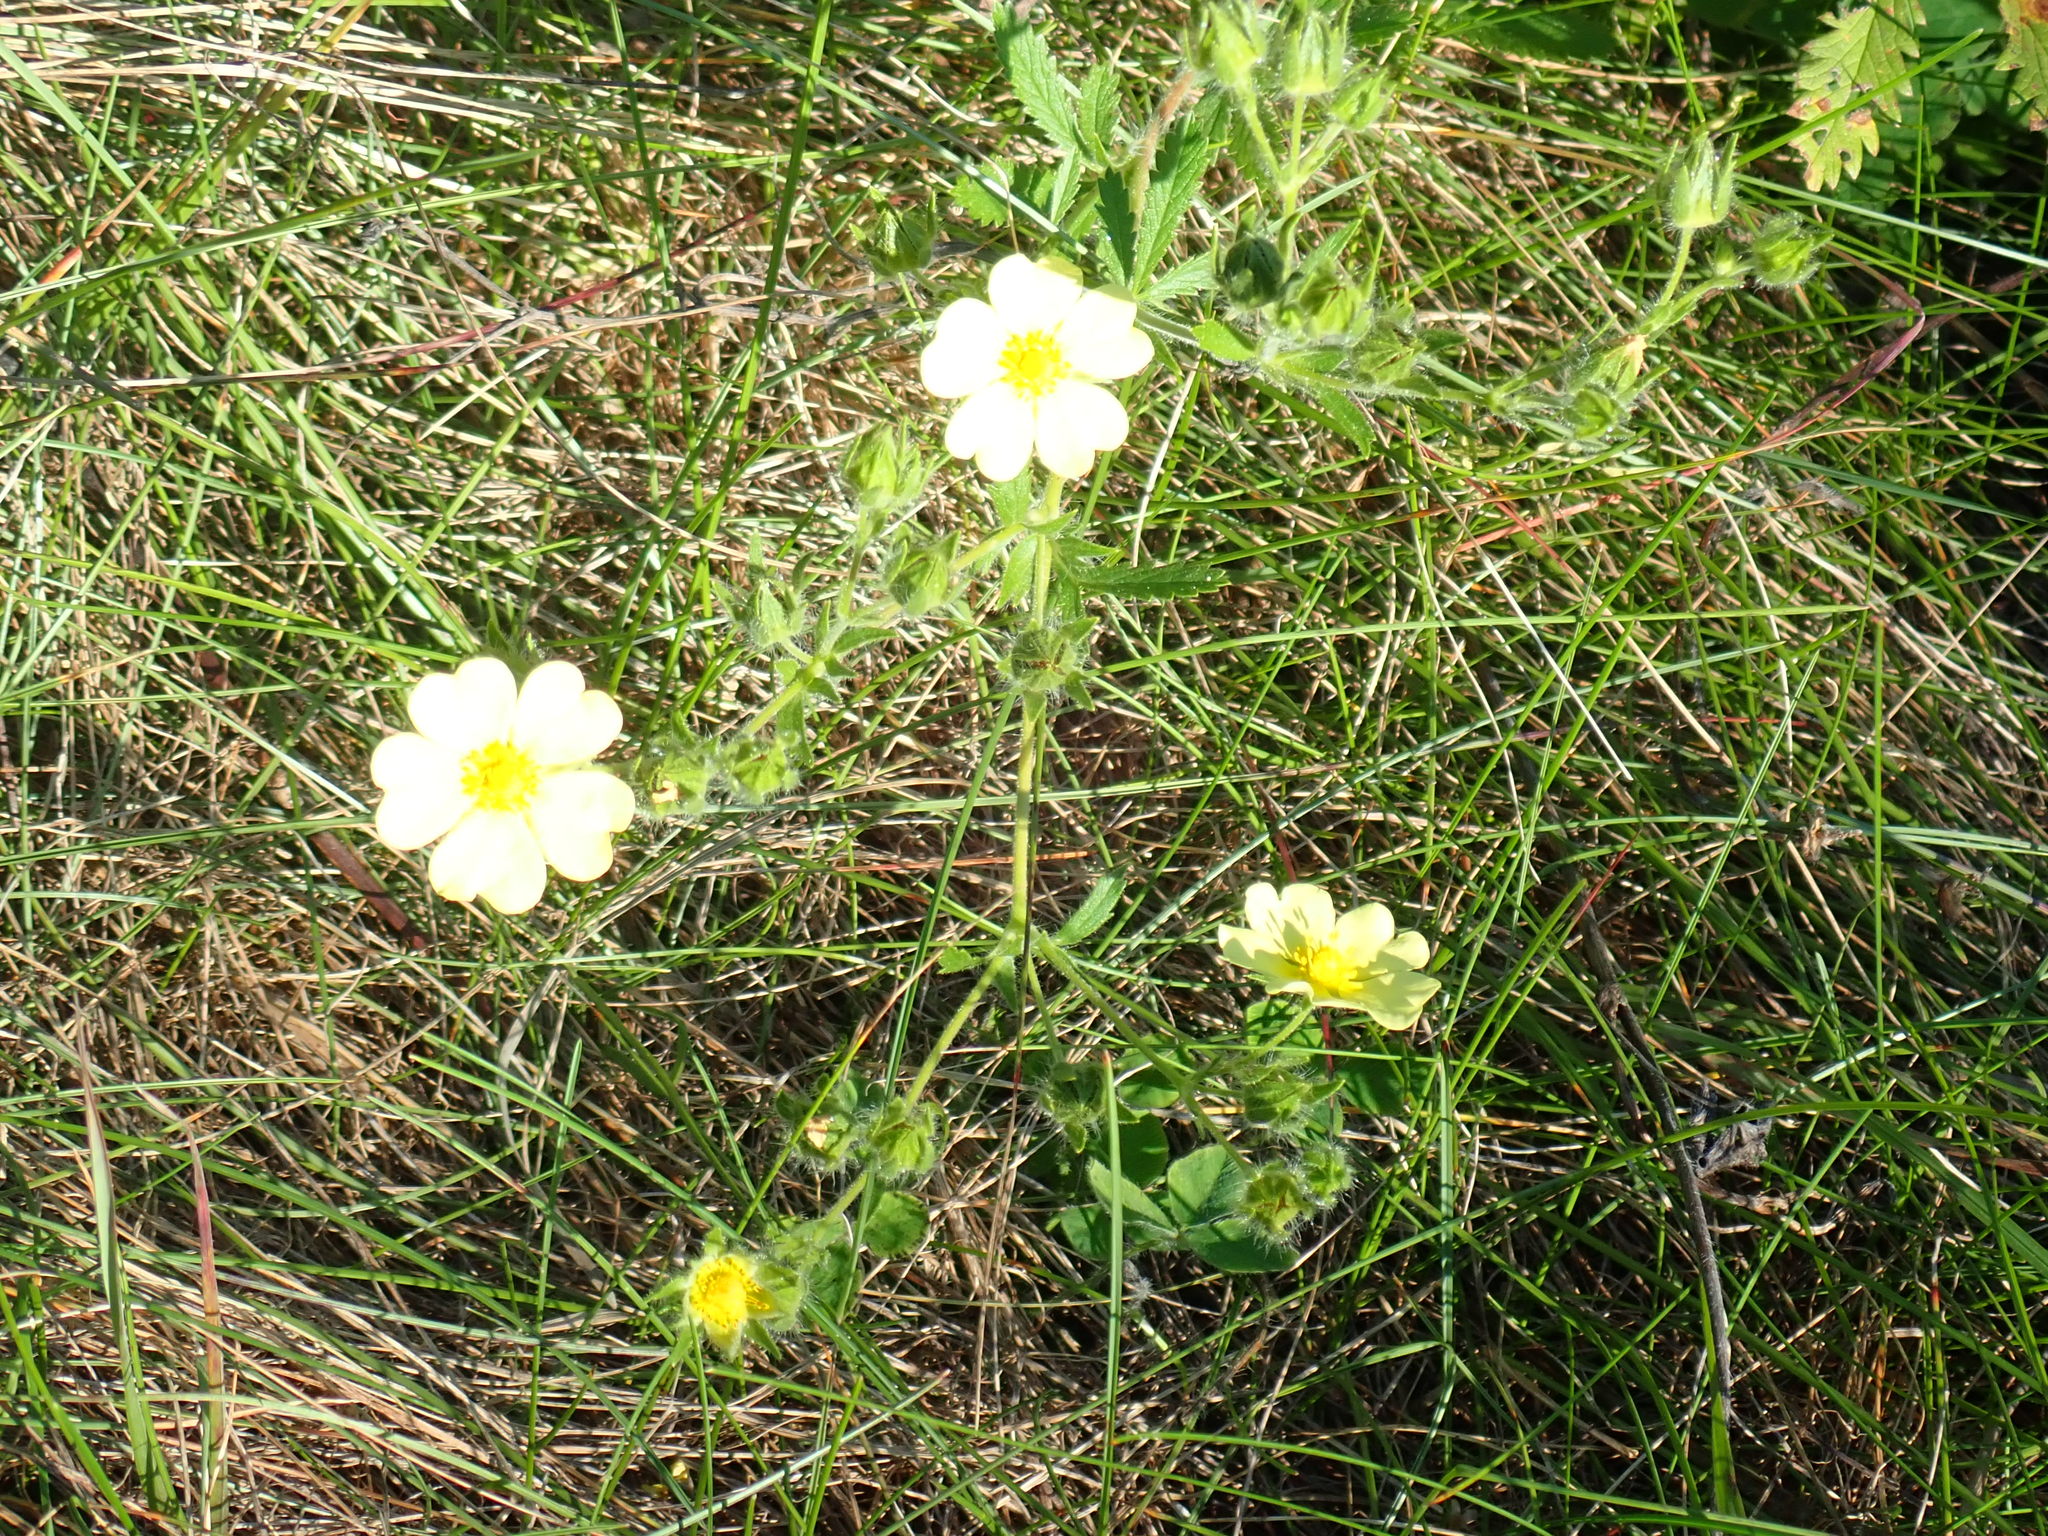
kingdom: Plantae
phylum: Tracheophyta
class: Magnoliopsida
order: Rosales
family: Rosaceae
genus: Potentilla
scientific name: Potentilla recta
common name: Sulphur cinquefoil
